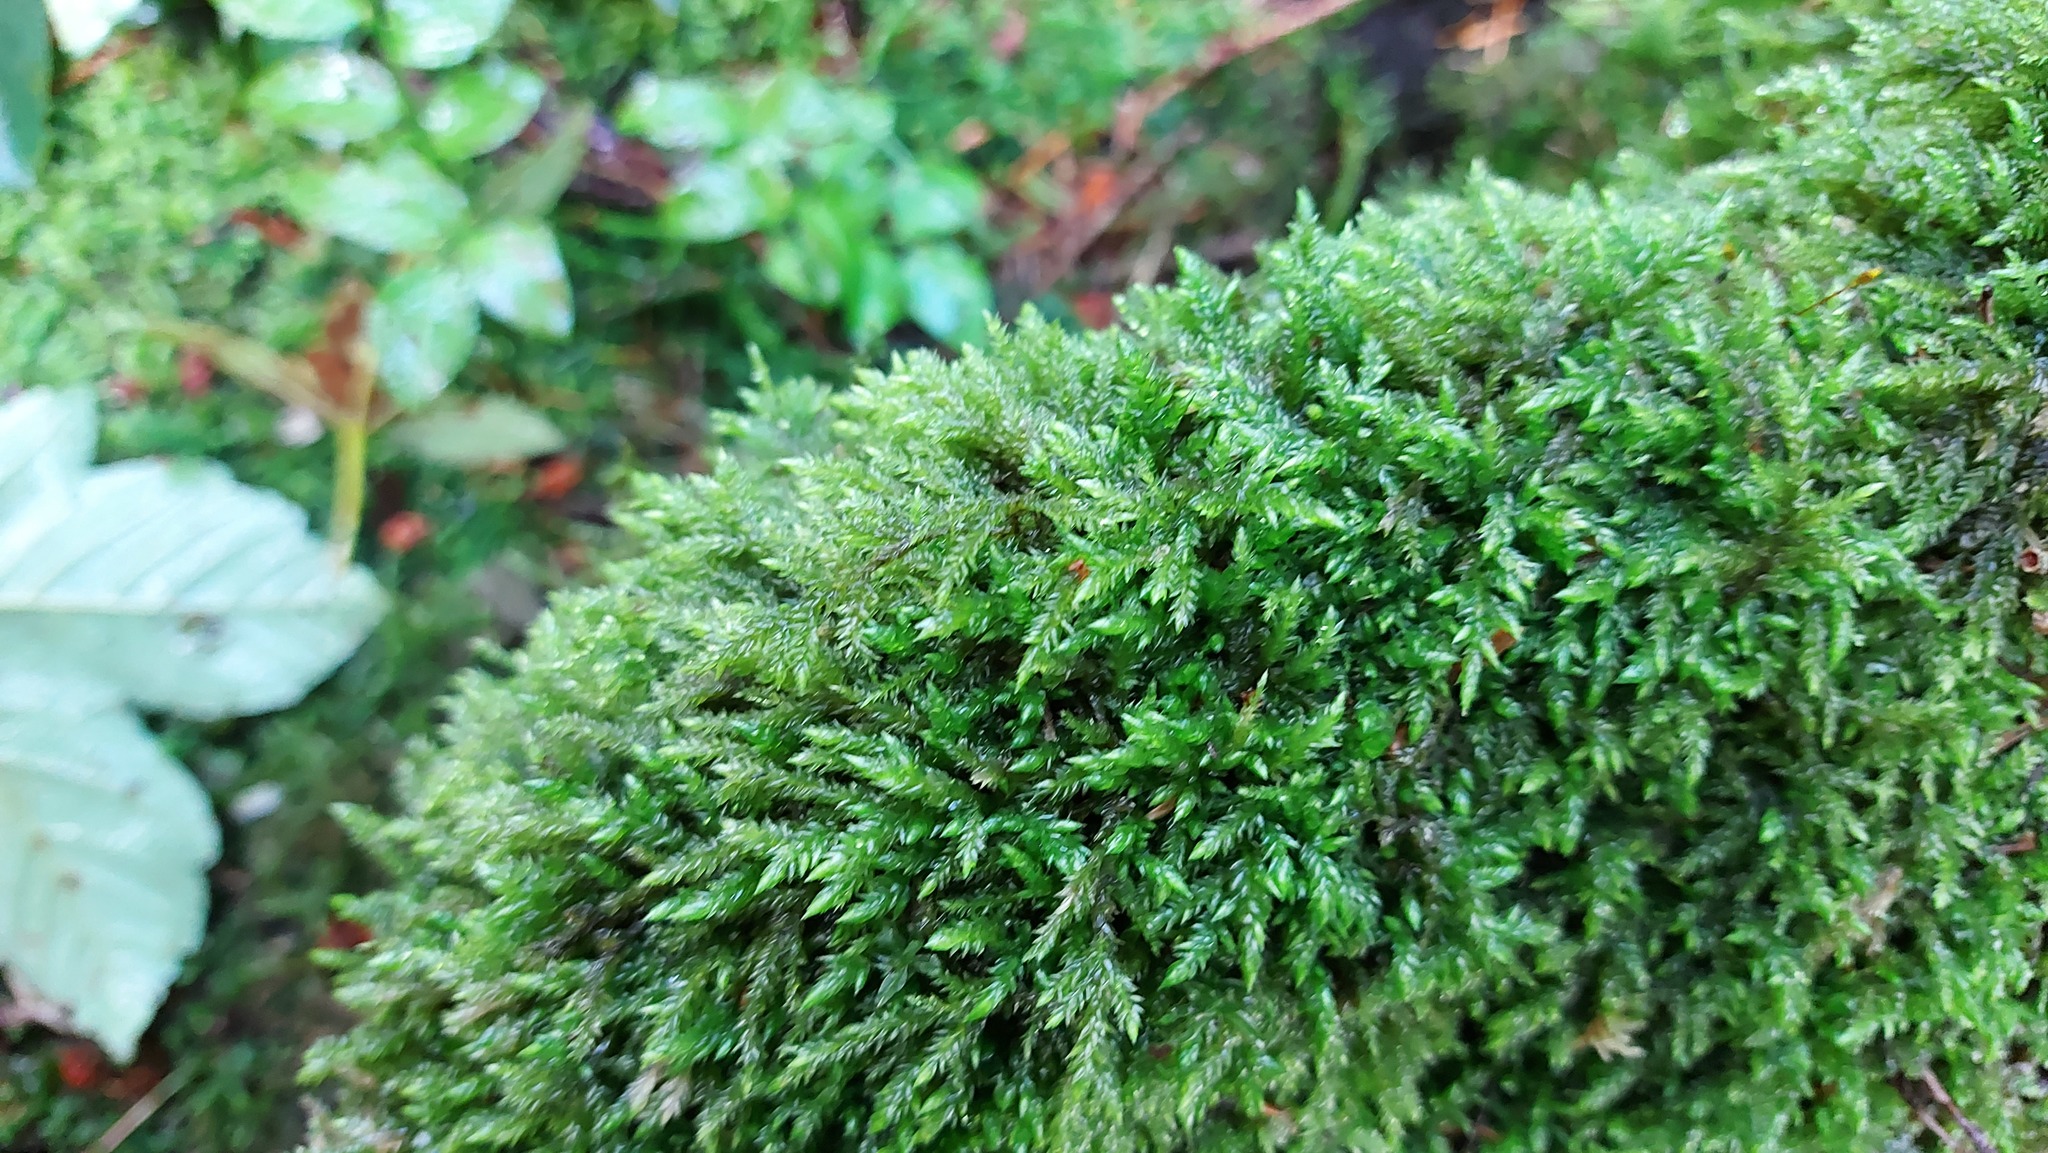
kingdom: Plantae
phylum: Bryophyta
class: Bryopsida
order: Hypnales
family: Lembophyllaceae
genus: Isothecium
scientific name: Isothecium alopecuroides
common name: Larger mouse-tail moss
